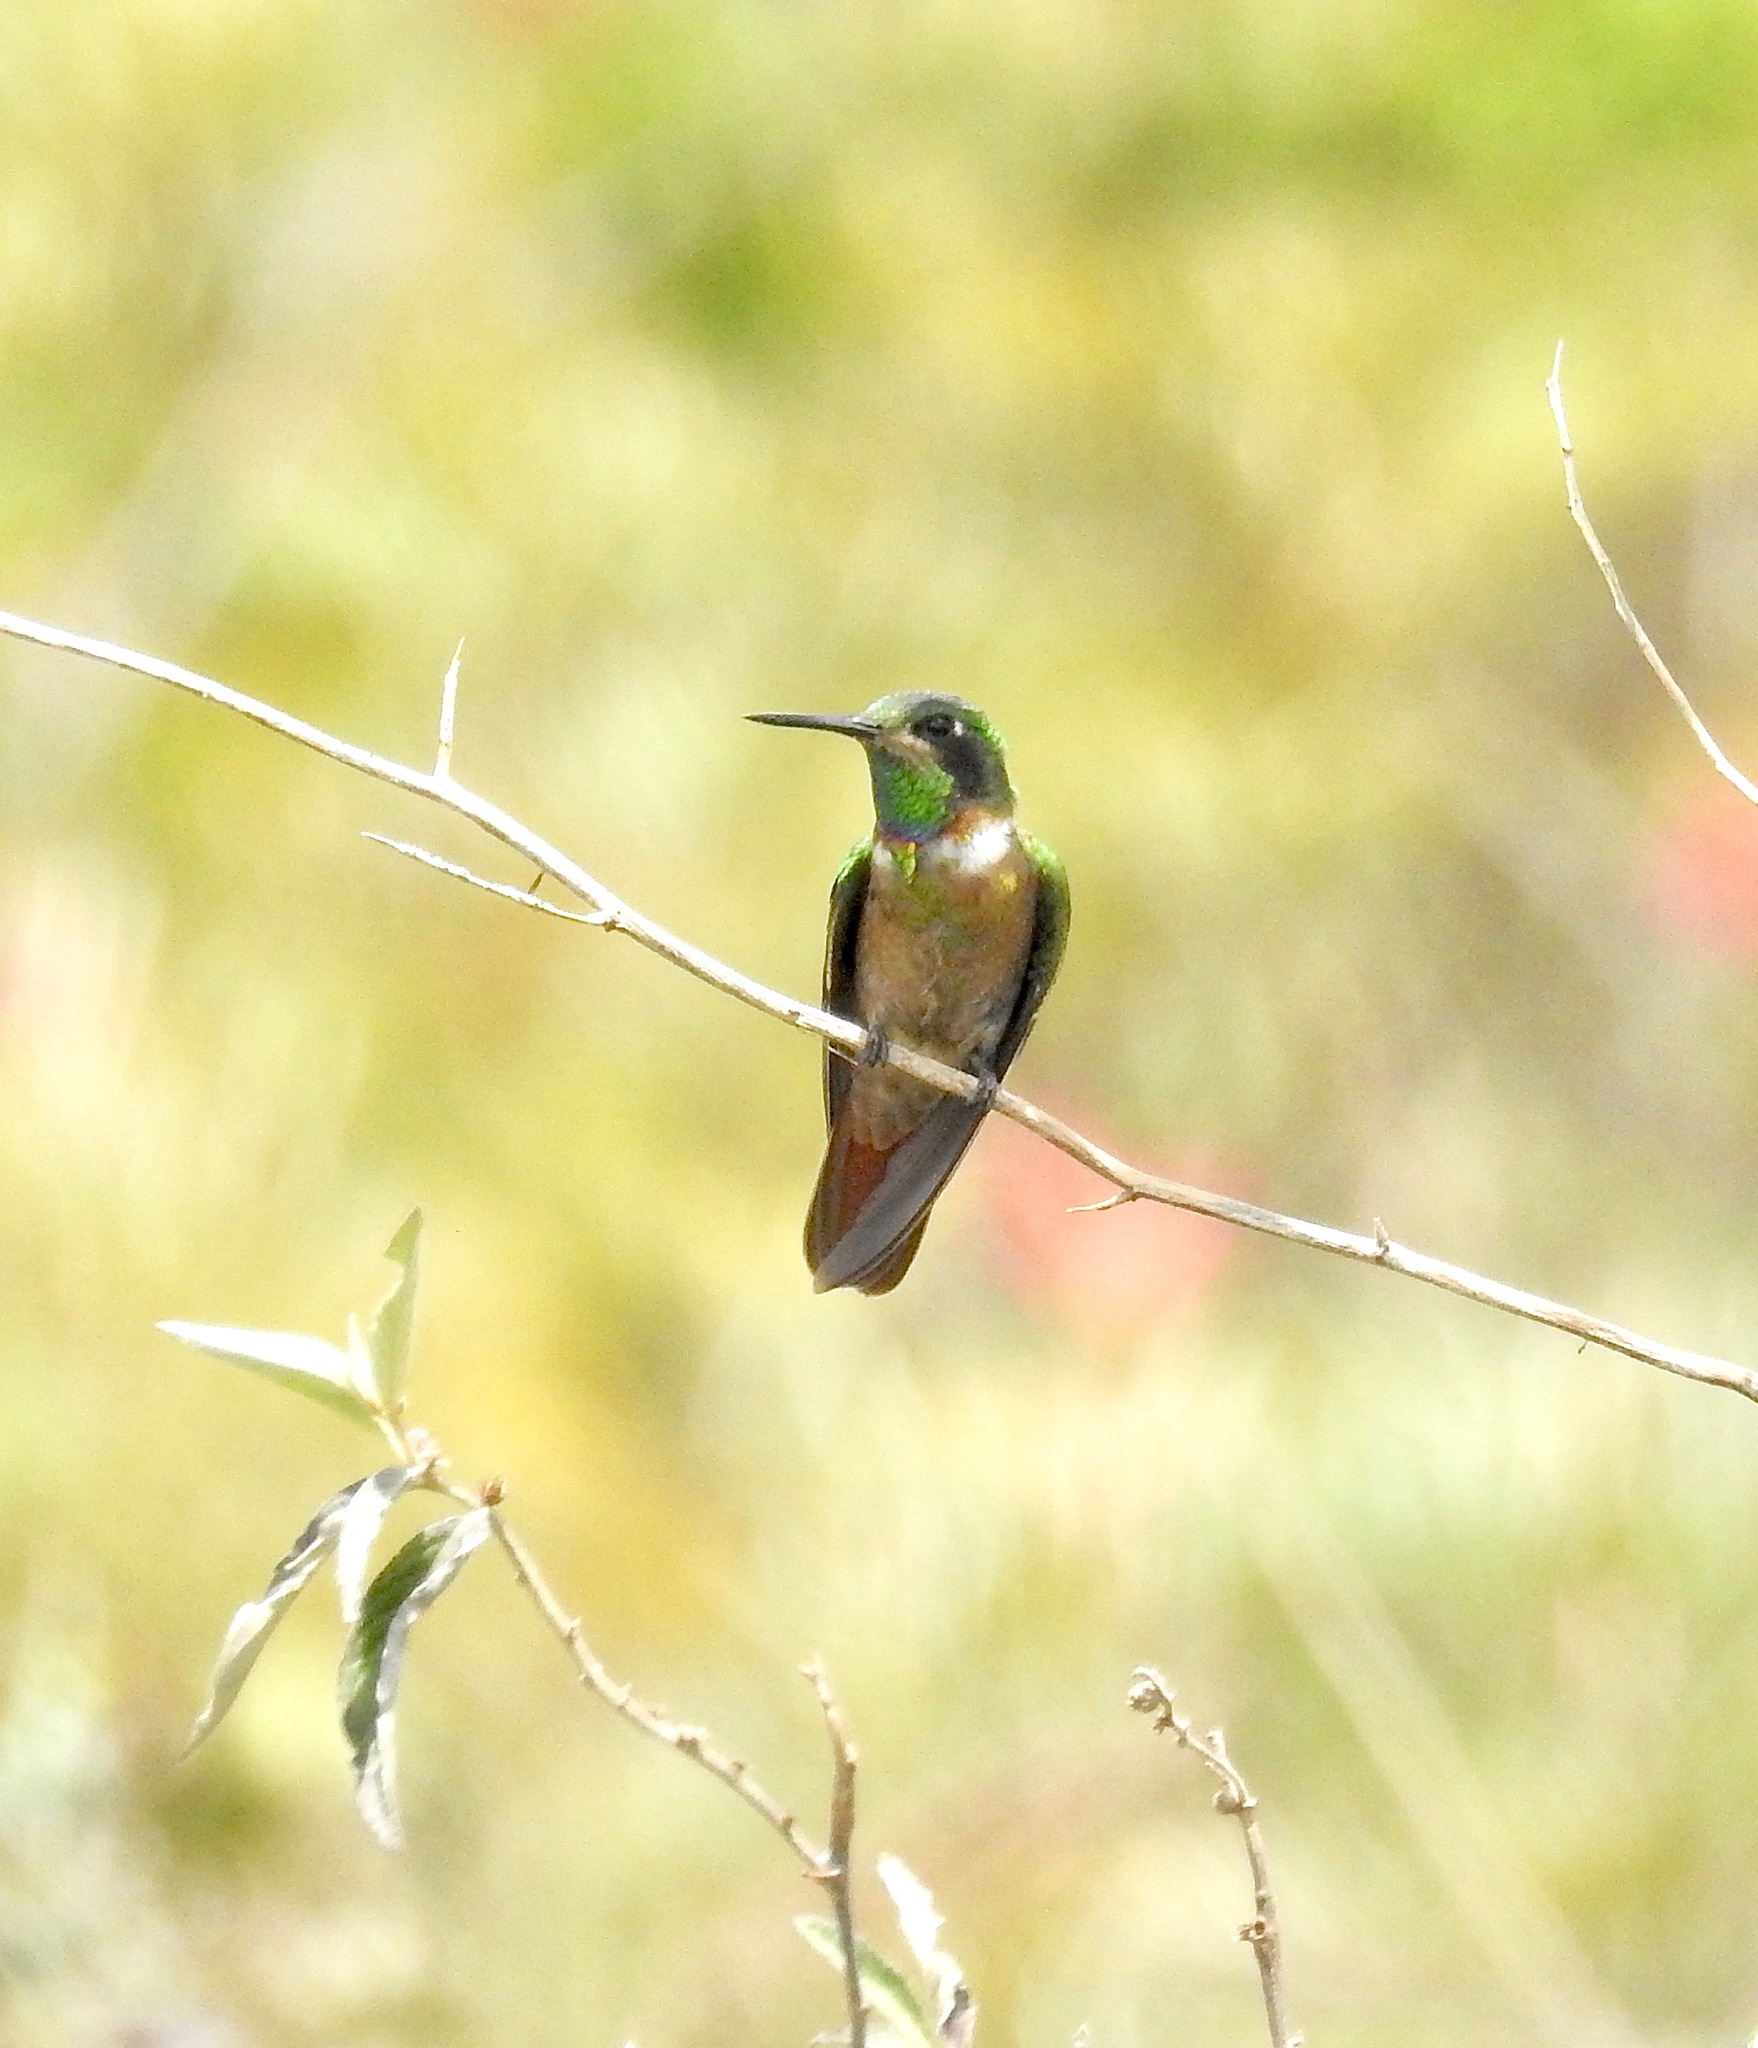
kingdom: Animalia
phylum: Chordata
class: Aves
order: Apodiformes
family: Trochilidae
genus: Augastes
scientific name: Augastes lumachella
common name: Hooded visorbearer
